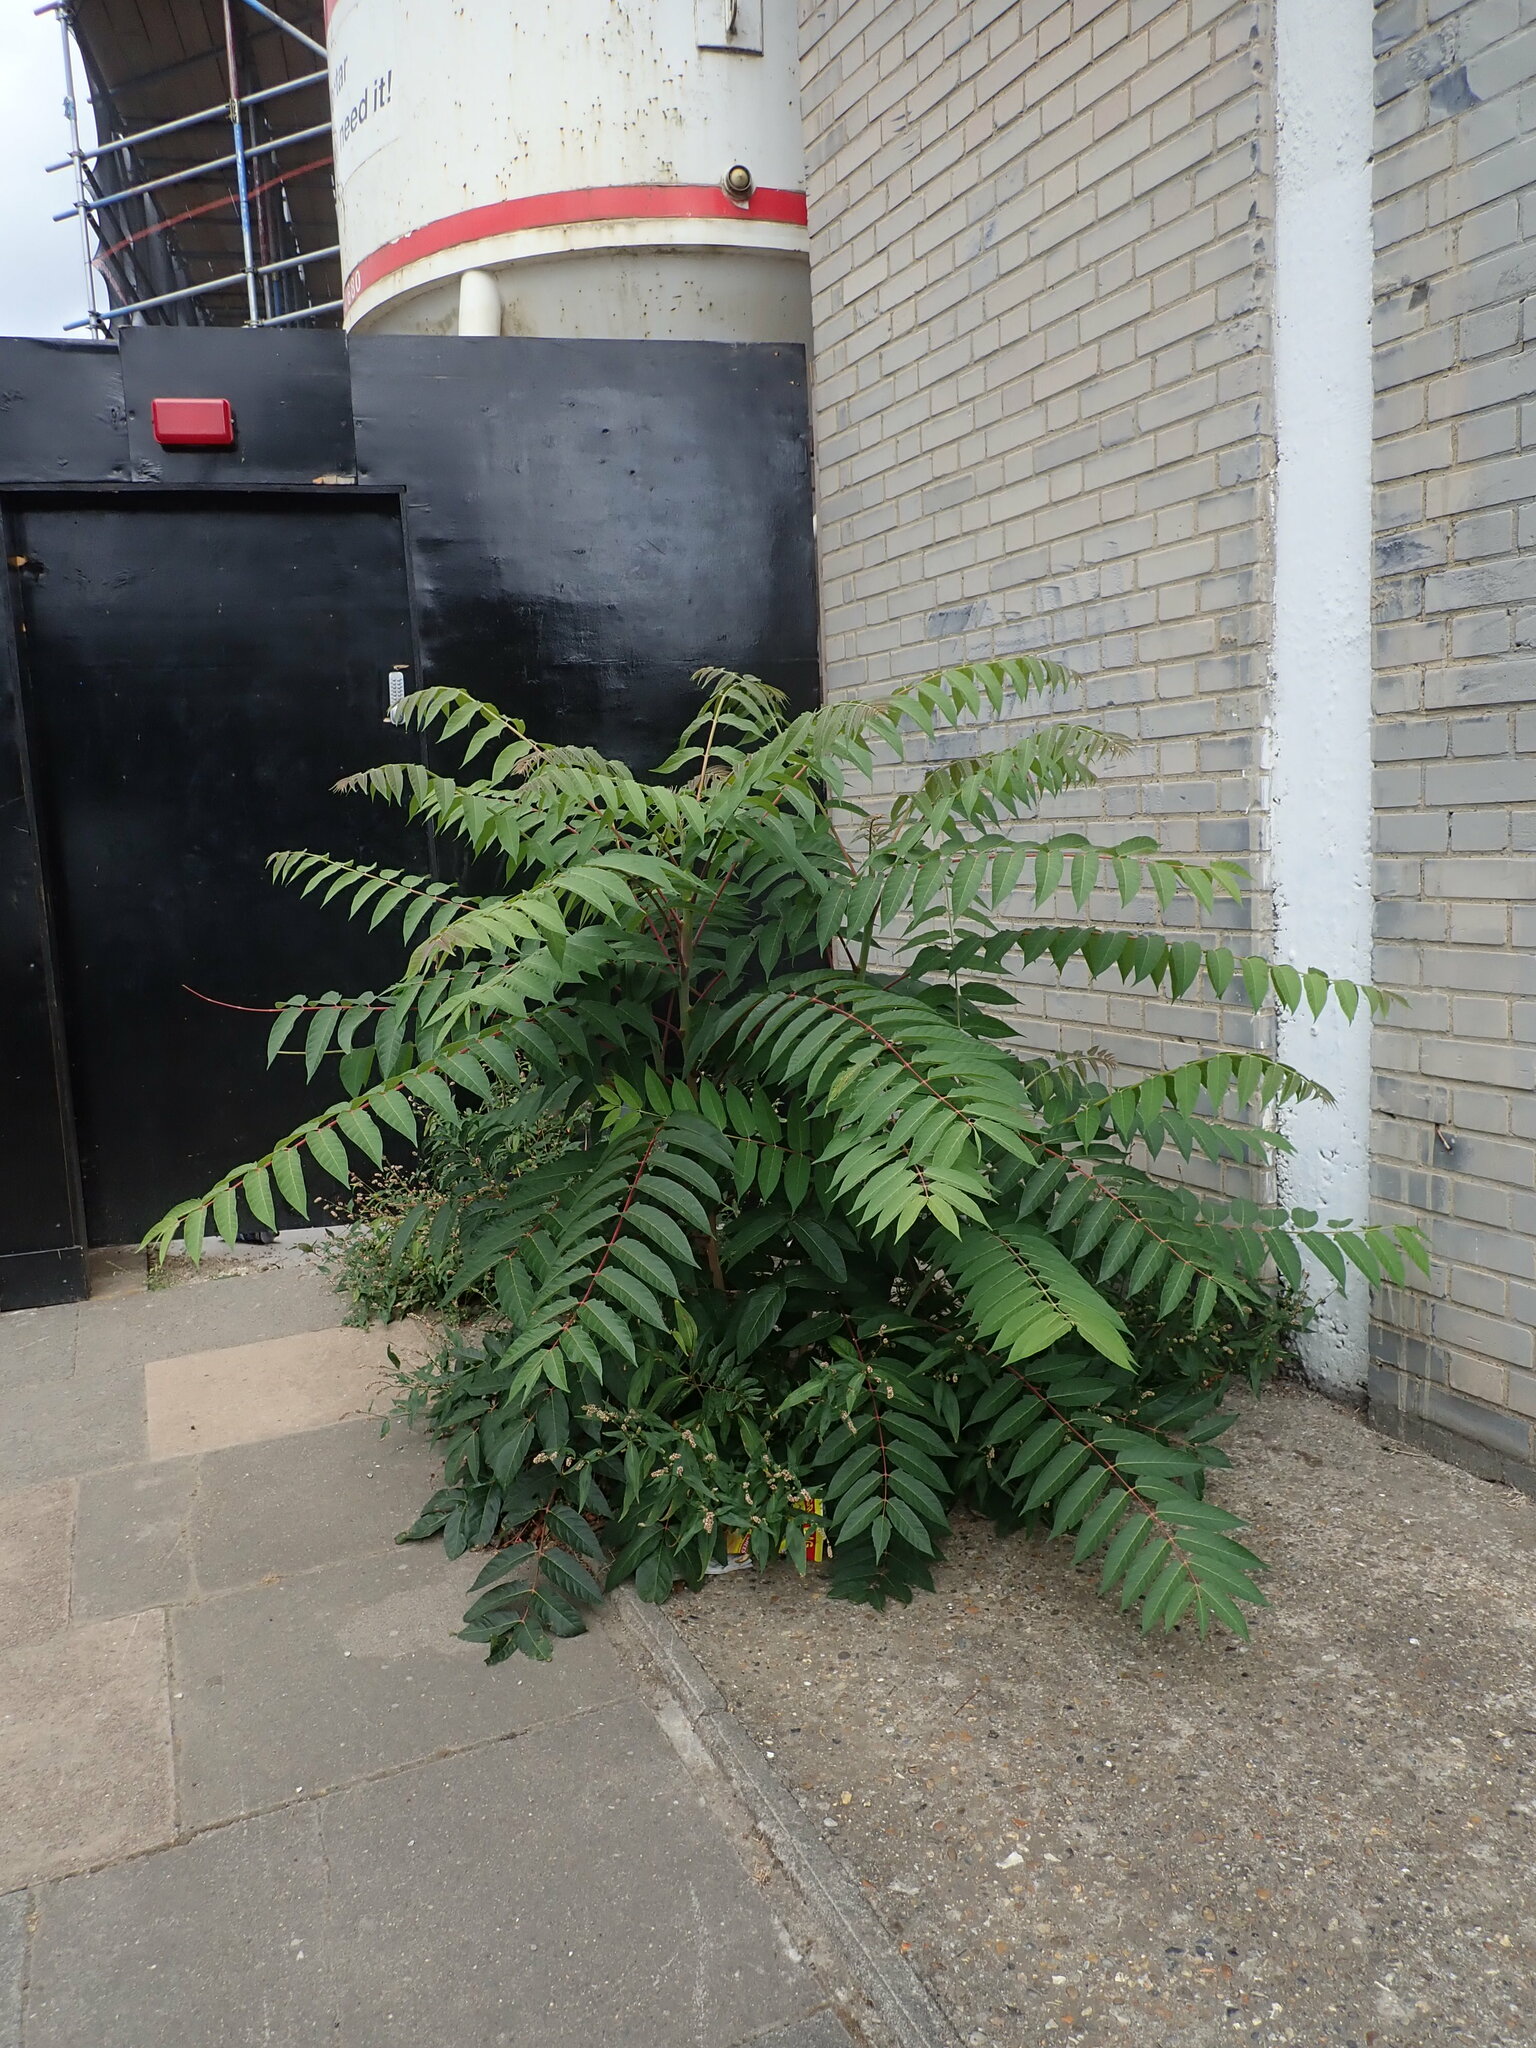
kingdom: Plantae
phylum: Tracheophyta
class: Magnoliopsida
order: Sapindales
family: Simaroubaceae
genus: Ailanthus
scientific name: Ailanthus altissima
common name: Tree-of-heaven
